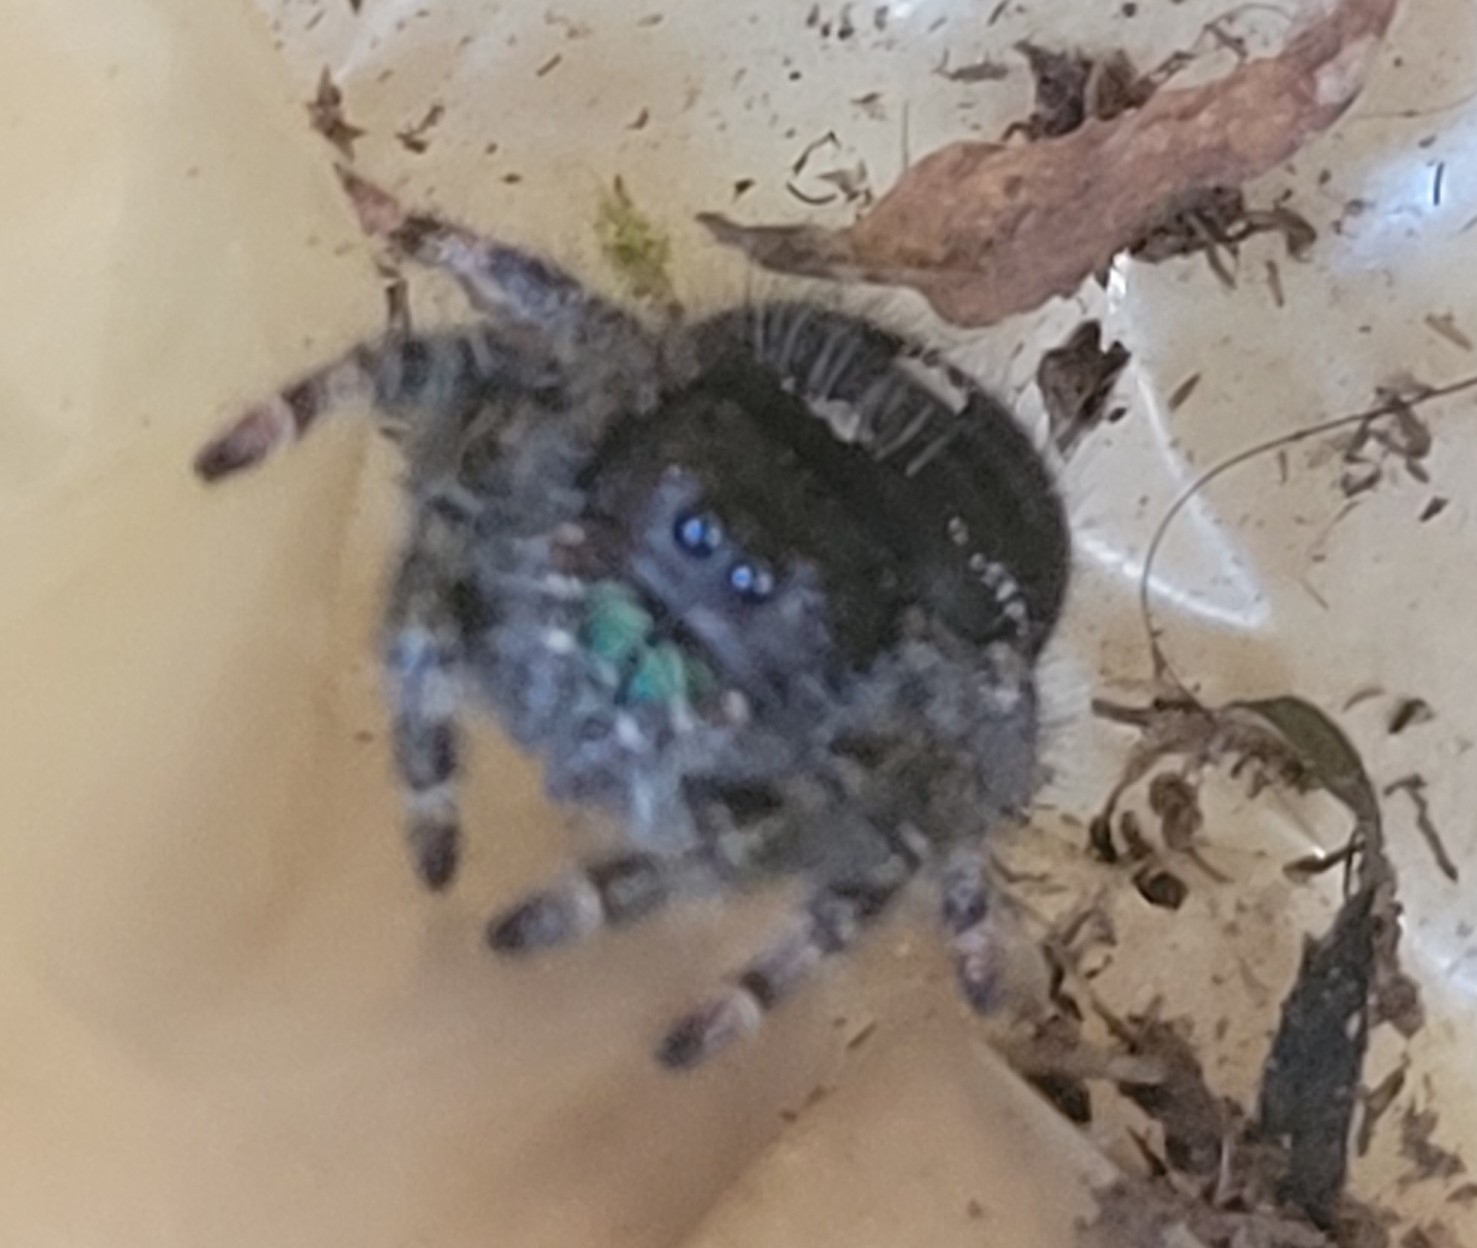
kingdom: Animalia
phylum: Arthropoda
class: Arachnida
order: Araneae
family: Salticidae
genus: Phidippus
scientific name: Phidippus audax
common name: Bold jumper
